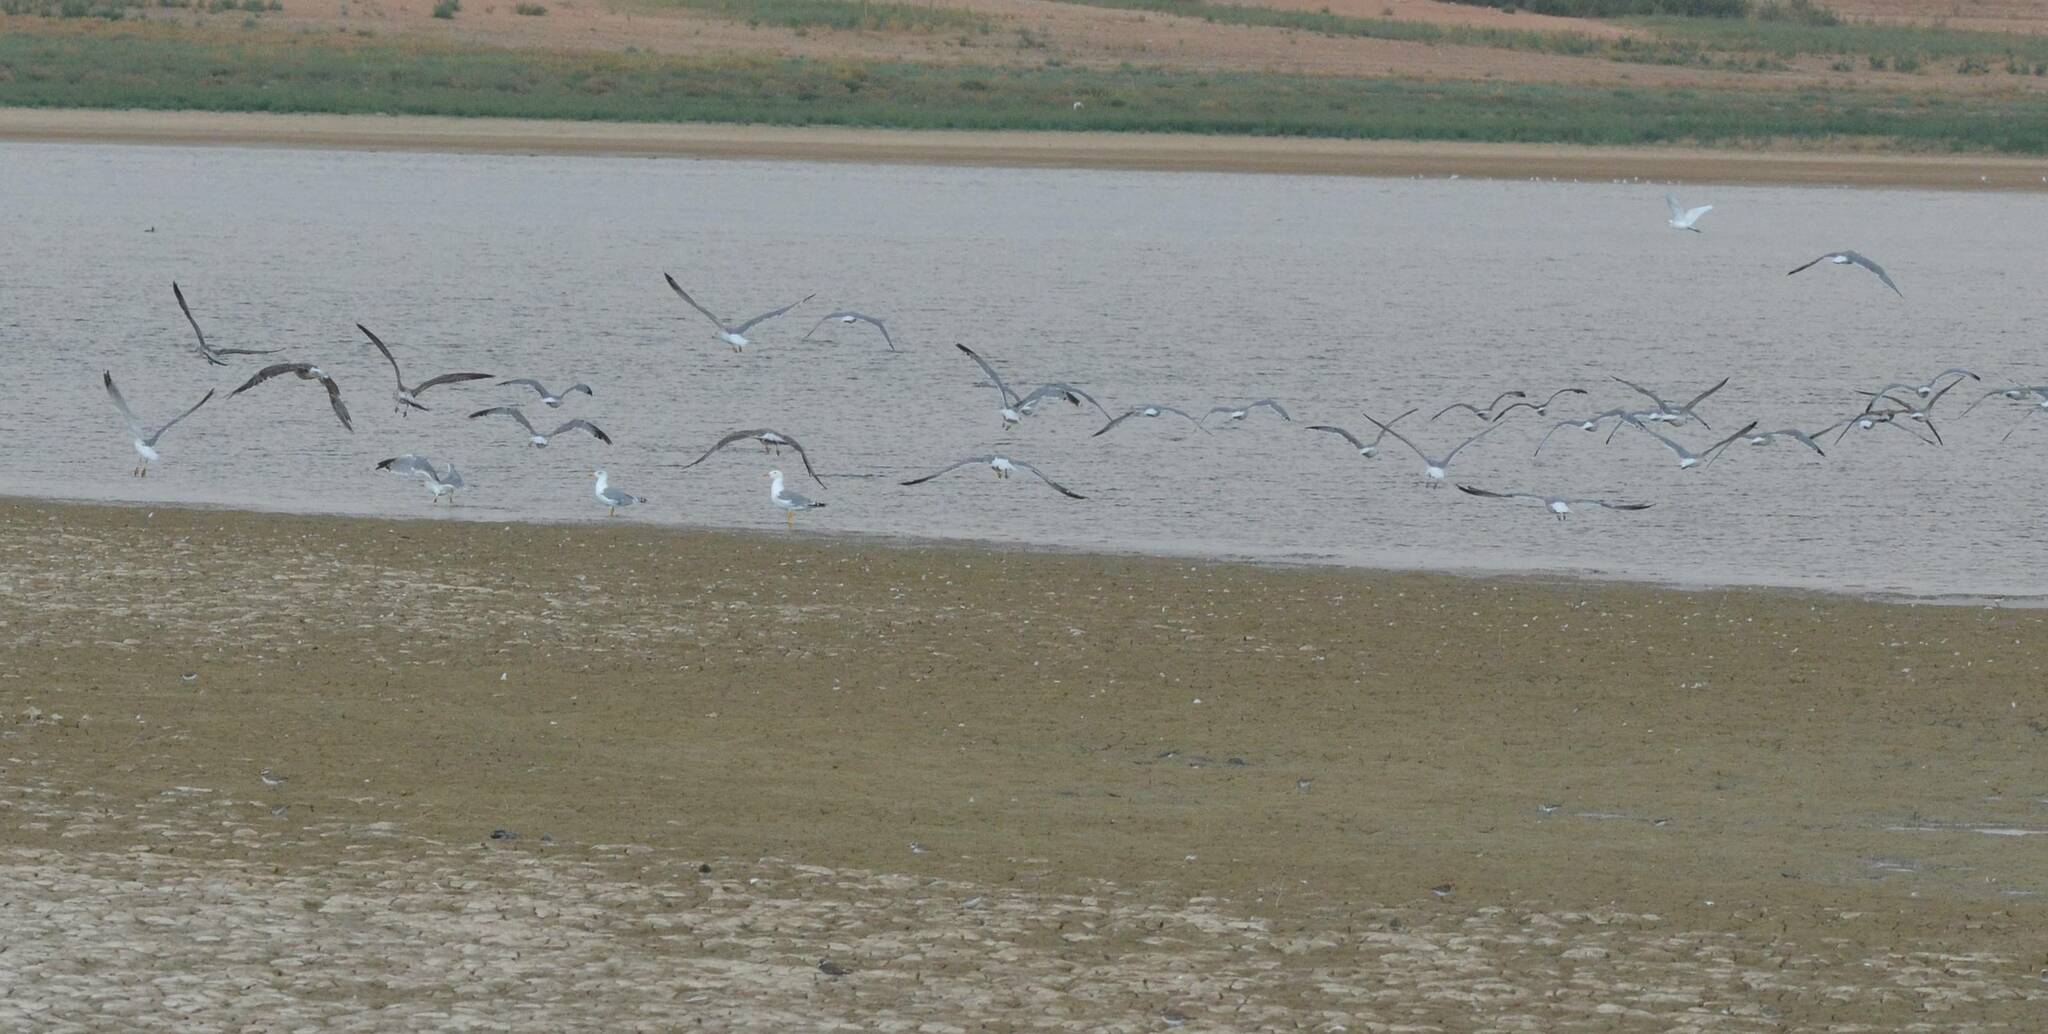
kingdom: Animalia
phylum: Chordata
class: Aves
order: Charadriiformes
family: Laridae
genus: Larus
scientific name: Larus michahellis
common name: Yellow-legged gull
